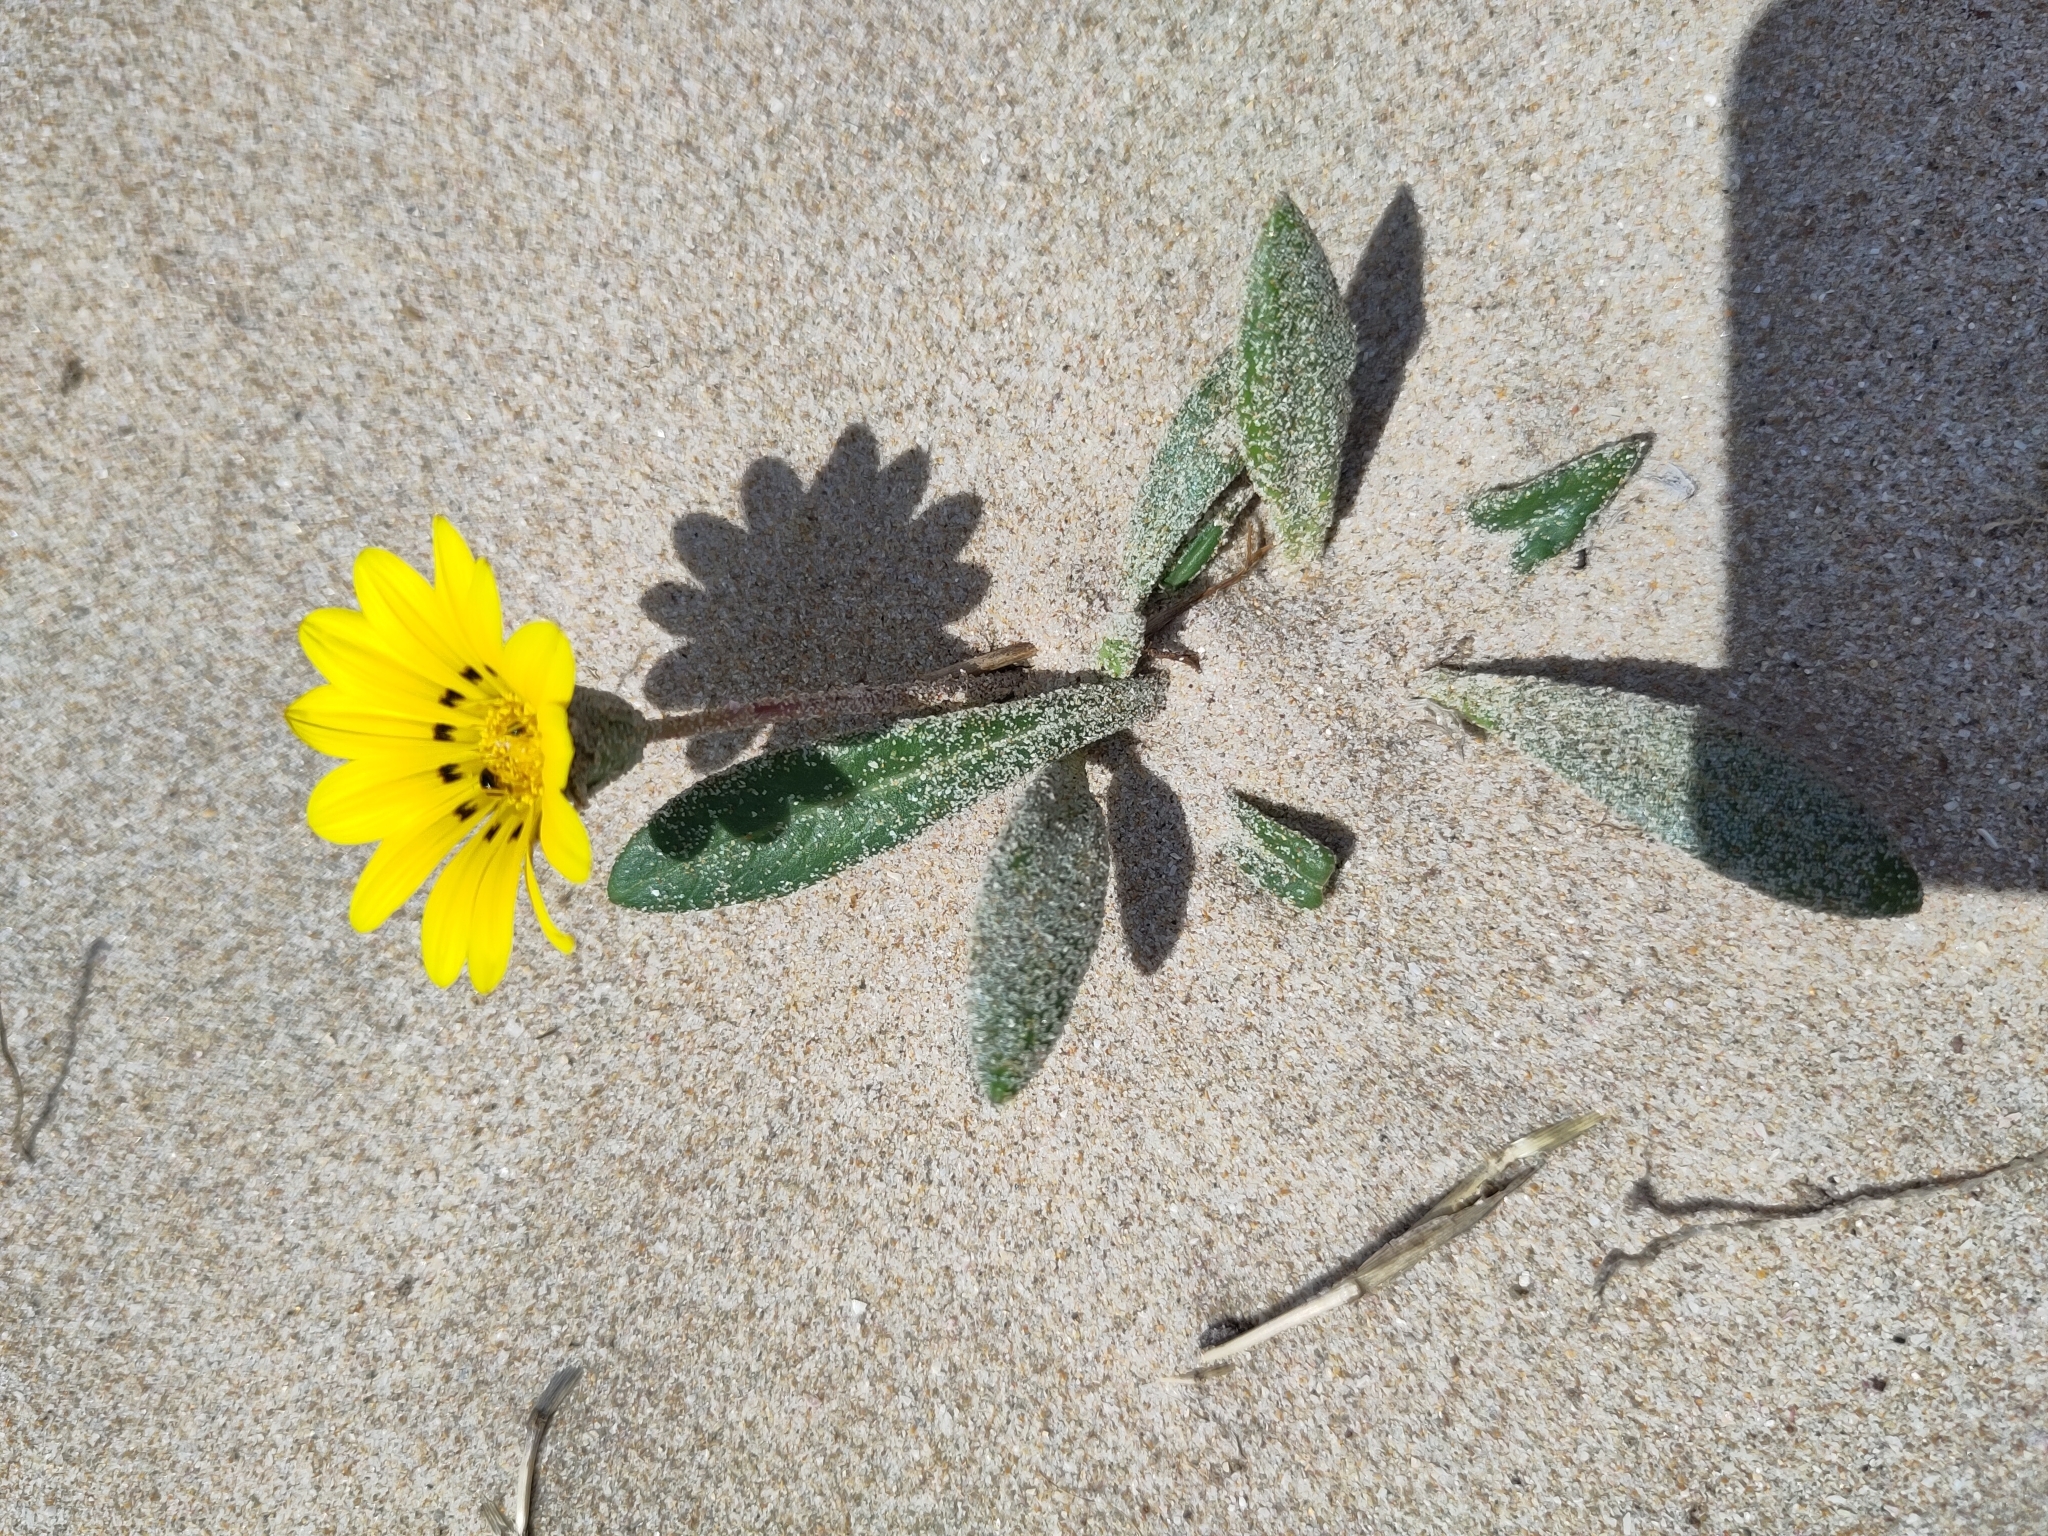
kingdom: Plantae
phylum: Tracheophyta
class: Magnoliopsida
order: Asterales
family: Asteraceae
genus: Gazania
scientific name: Gazania rigens
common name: Treasureflower
